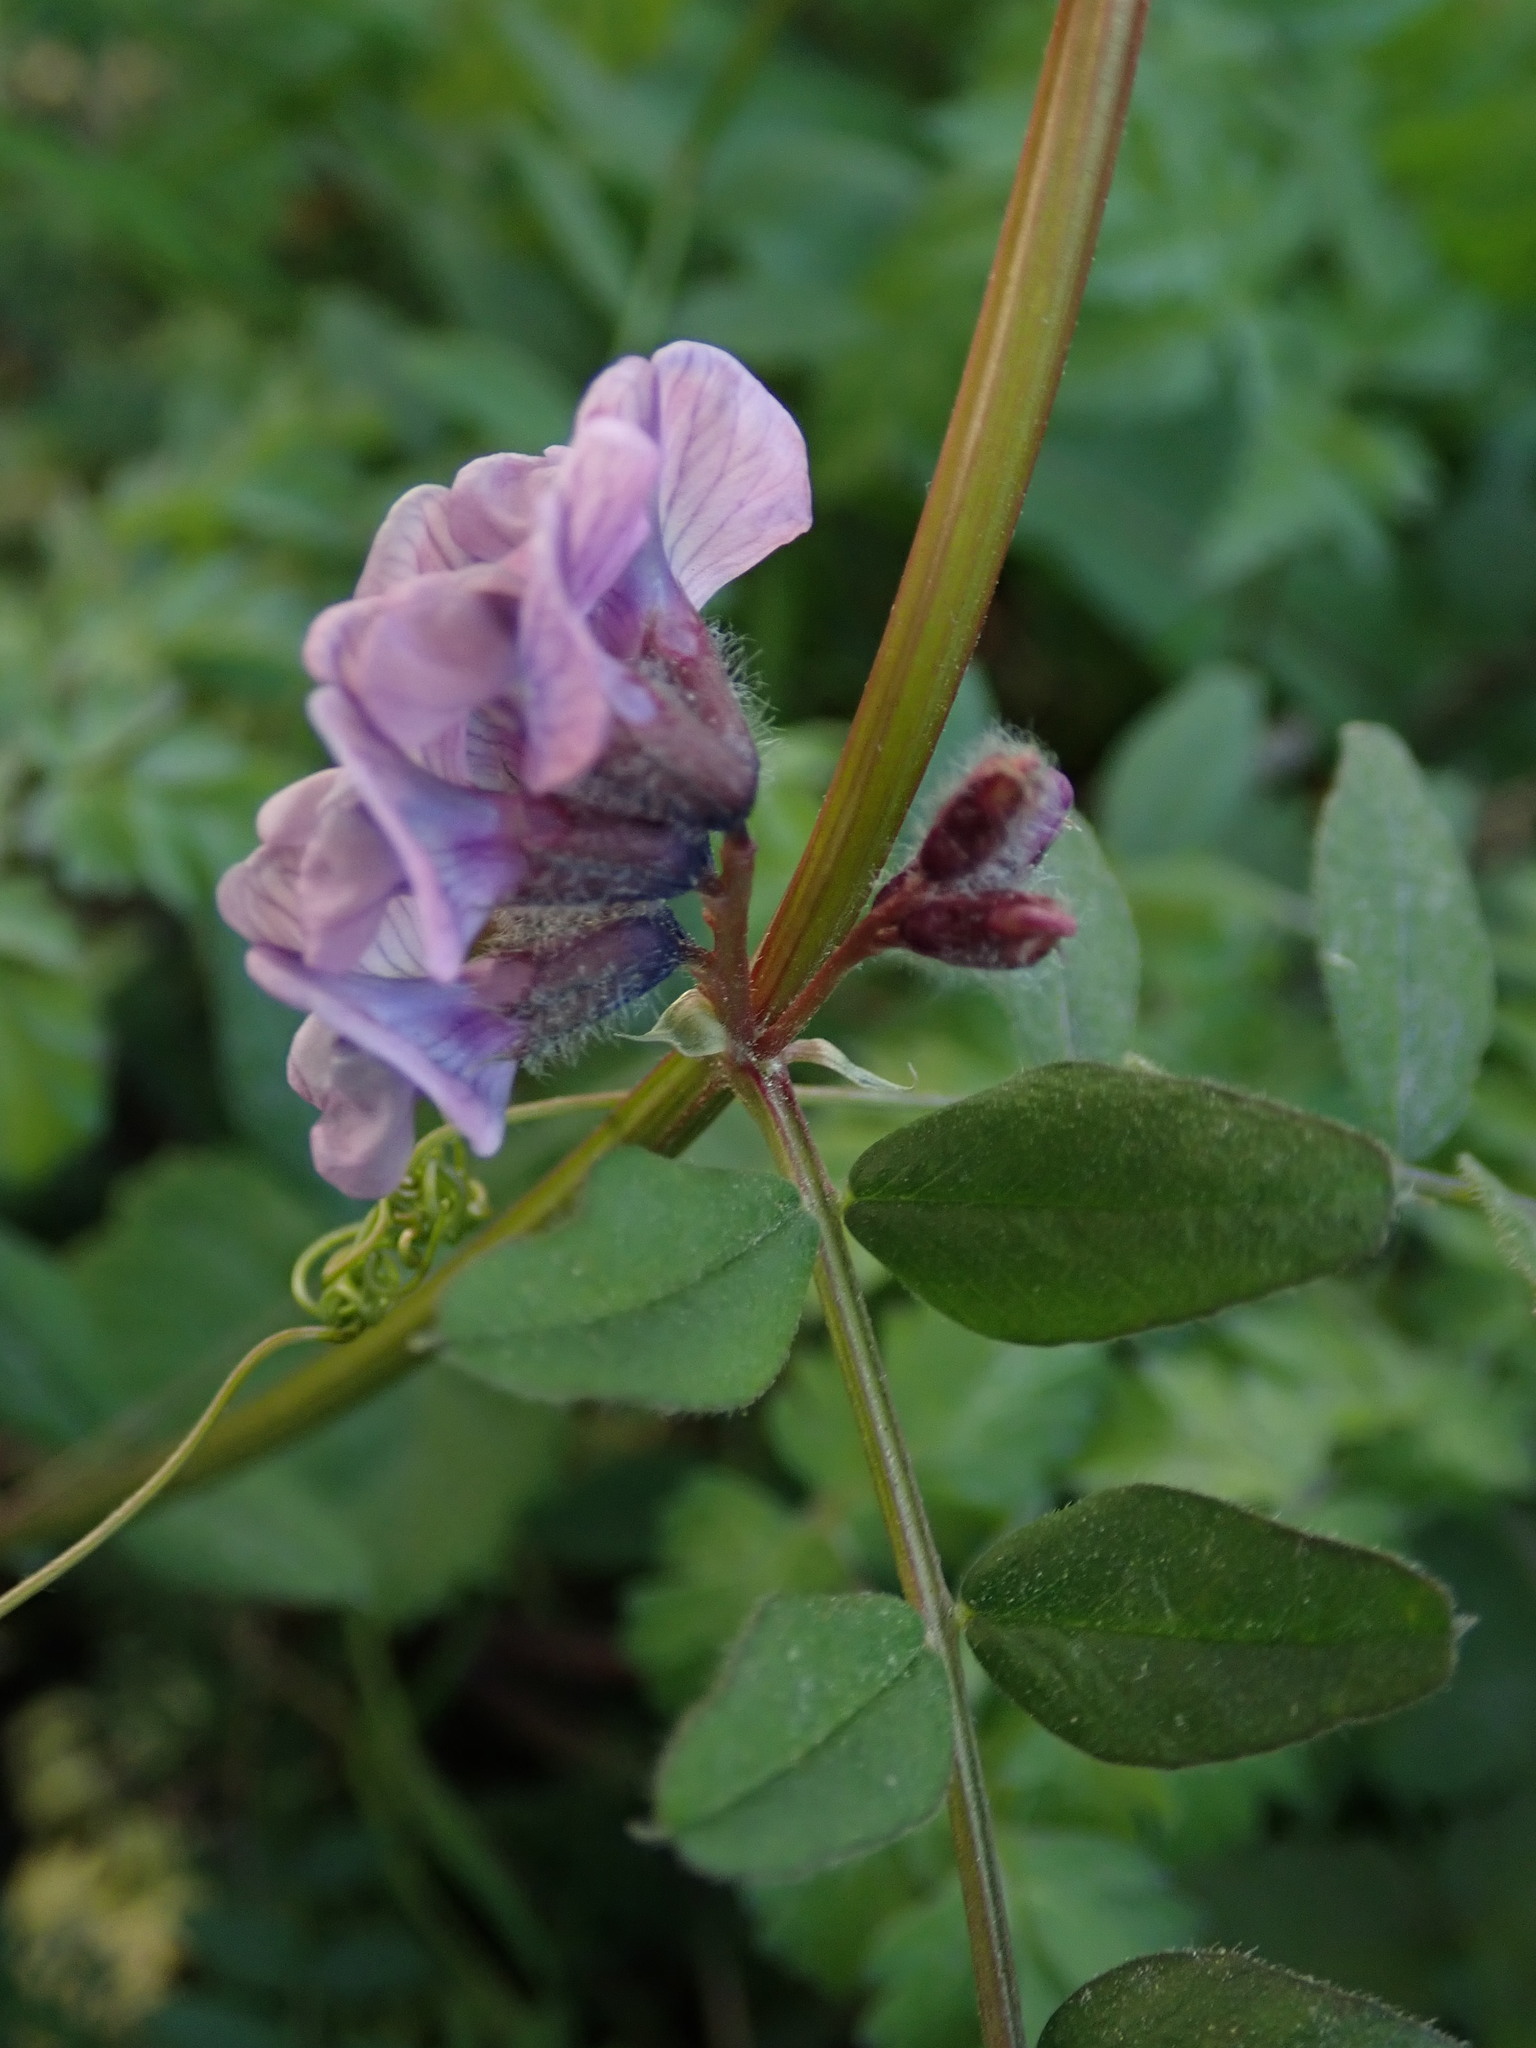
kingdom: Plantae
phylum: Tracheophyta
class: Magnoliopsida
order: Fabales
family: Fabaceae
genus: Vicia
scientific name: Vicia sepium
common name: Bush vetch
